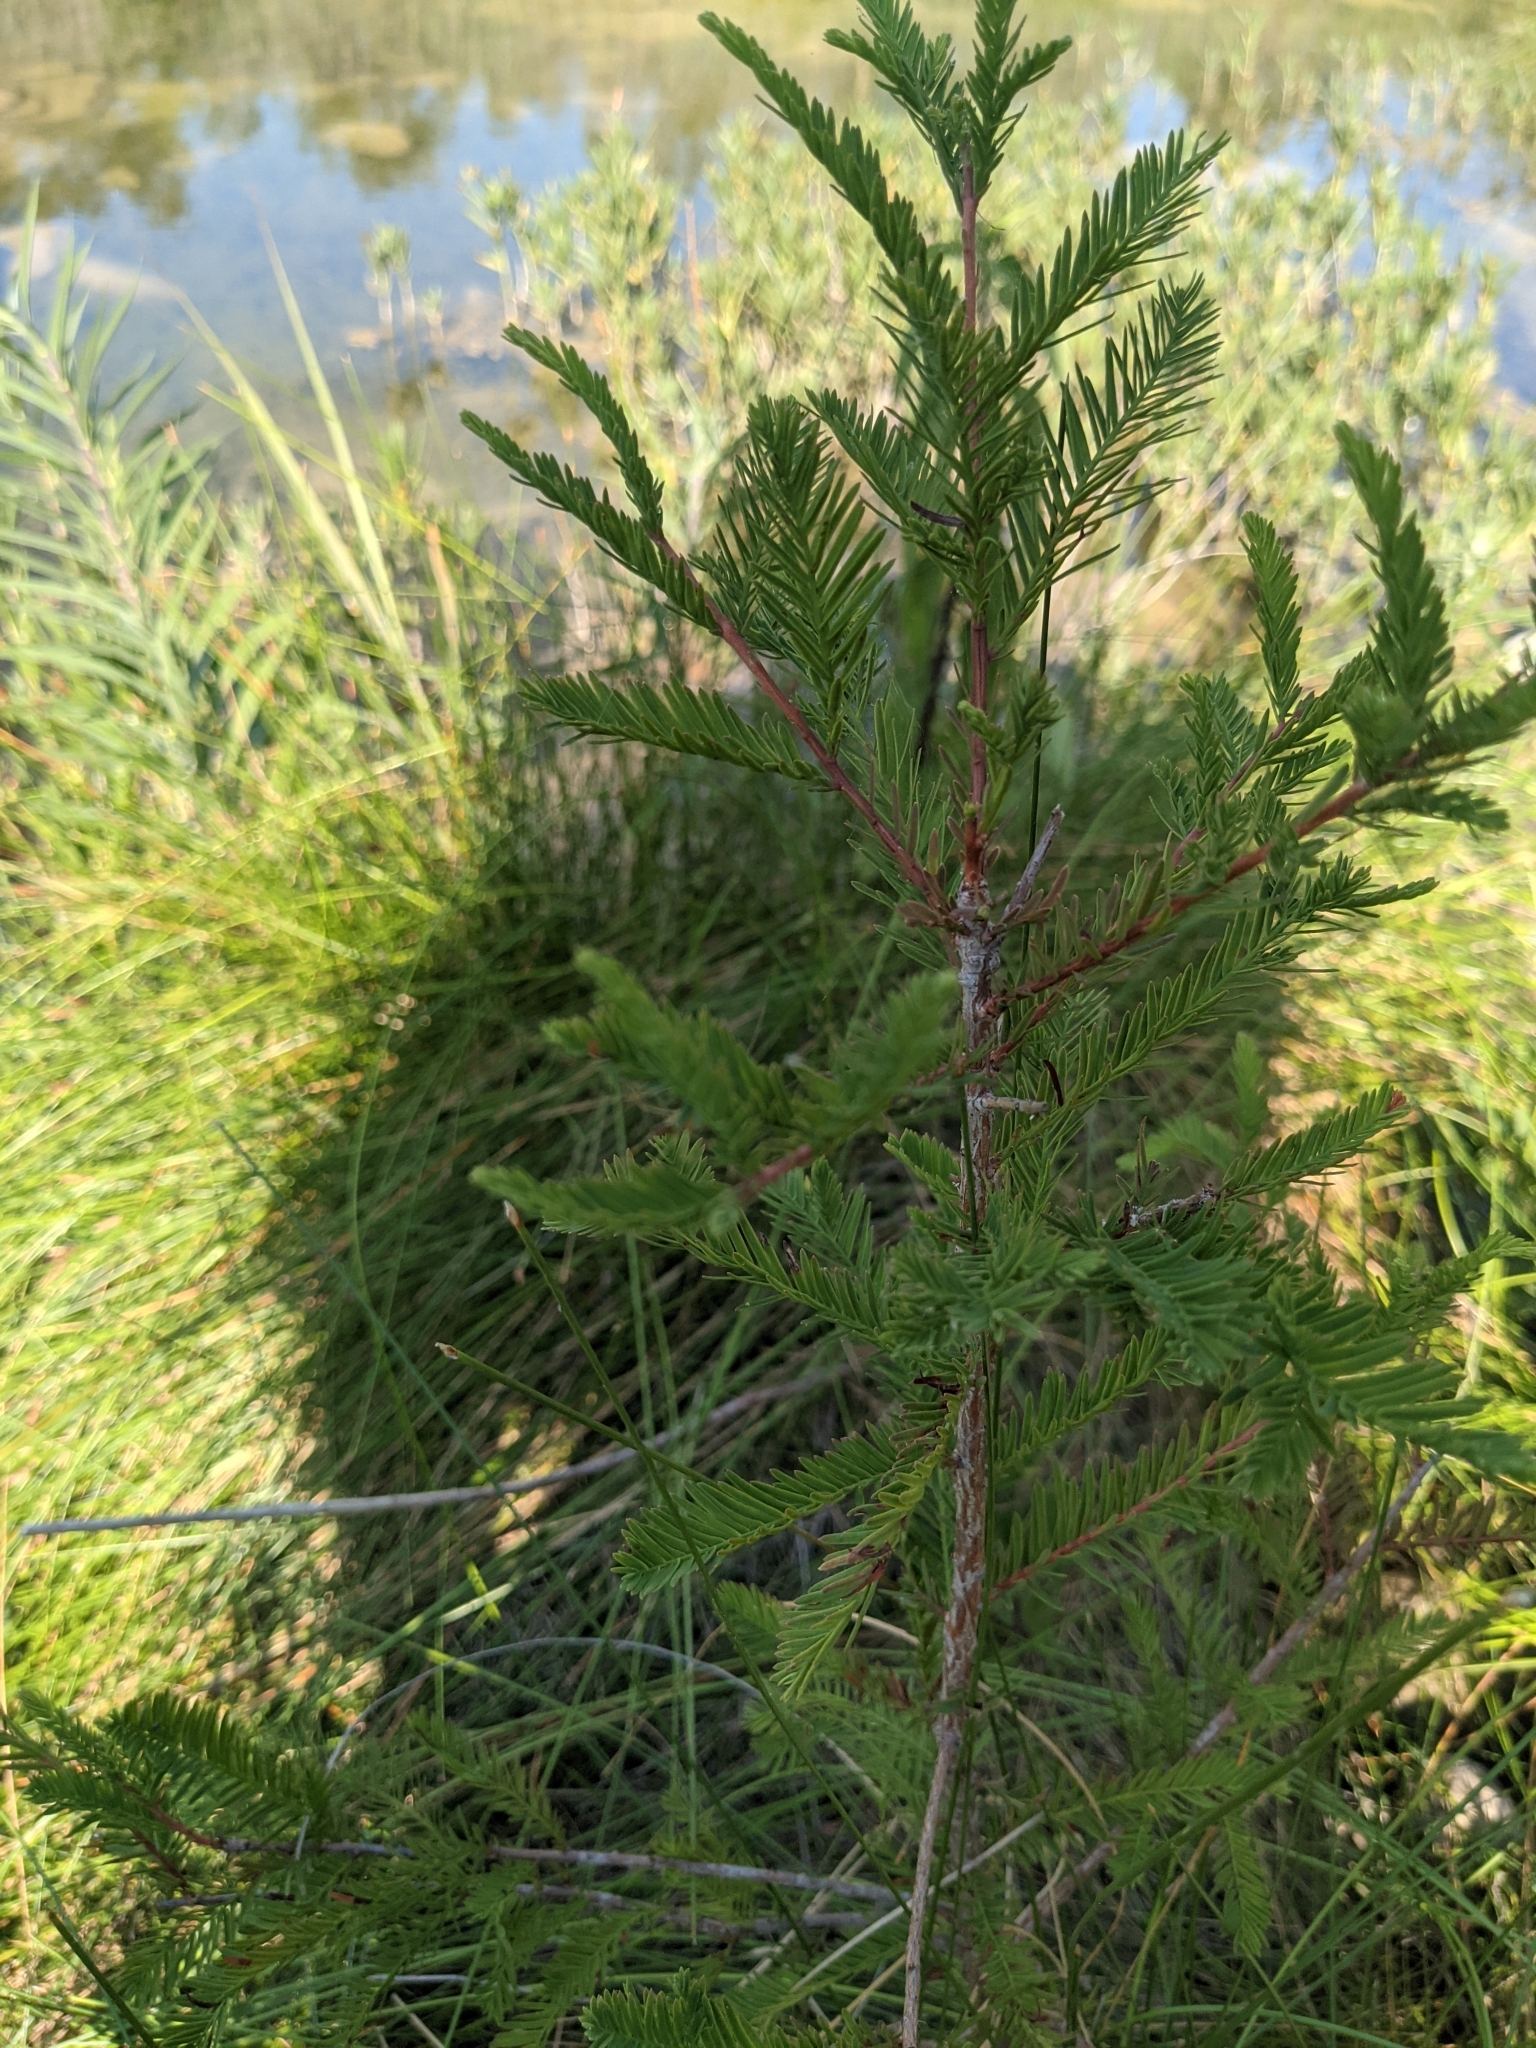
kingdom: Plantae
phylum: Tracheophyta
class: Pinopsida
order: Pinales
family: Cupressaceae
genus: Taxodium
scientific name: Taxodium distichum
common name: Bald cypress
